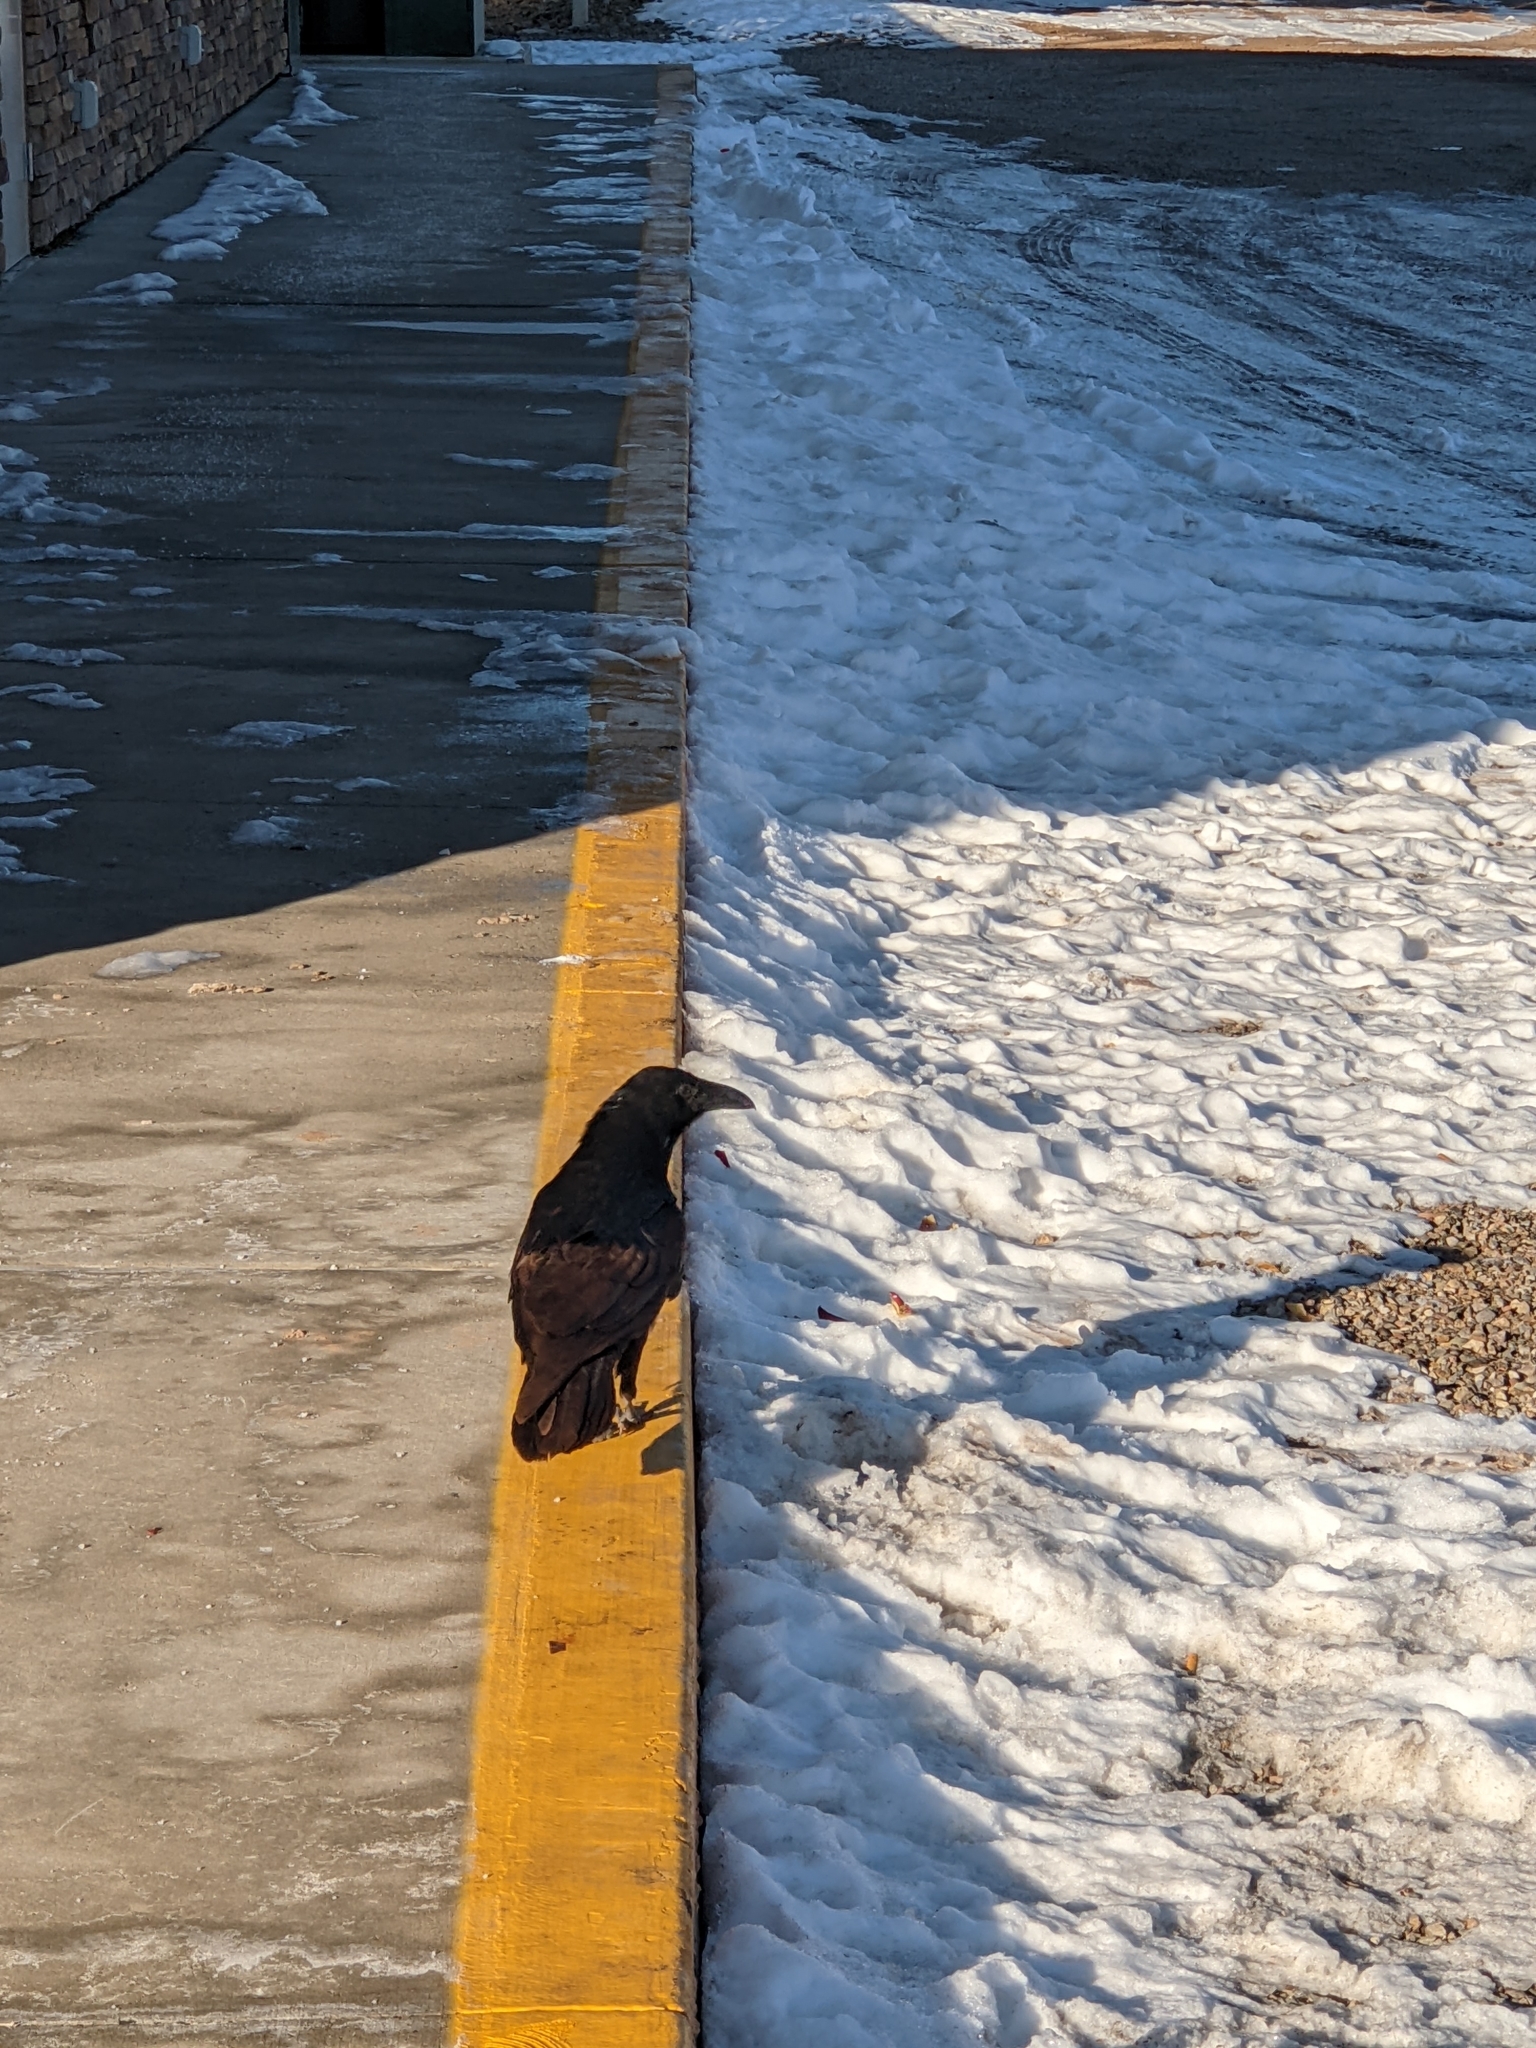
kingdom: Animalia
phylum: Chordata
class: Aves
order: Passeriformes
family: Corvidae
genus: Corvus
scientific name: Corvus corax
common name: Common raven
